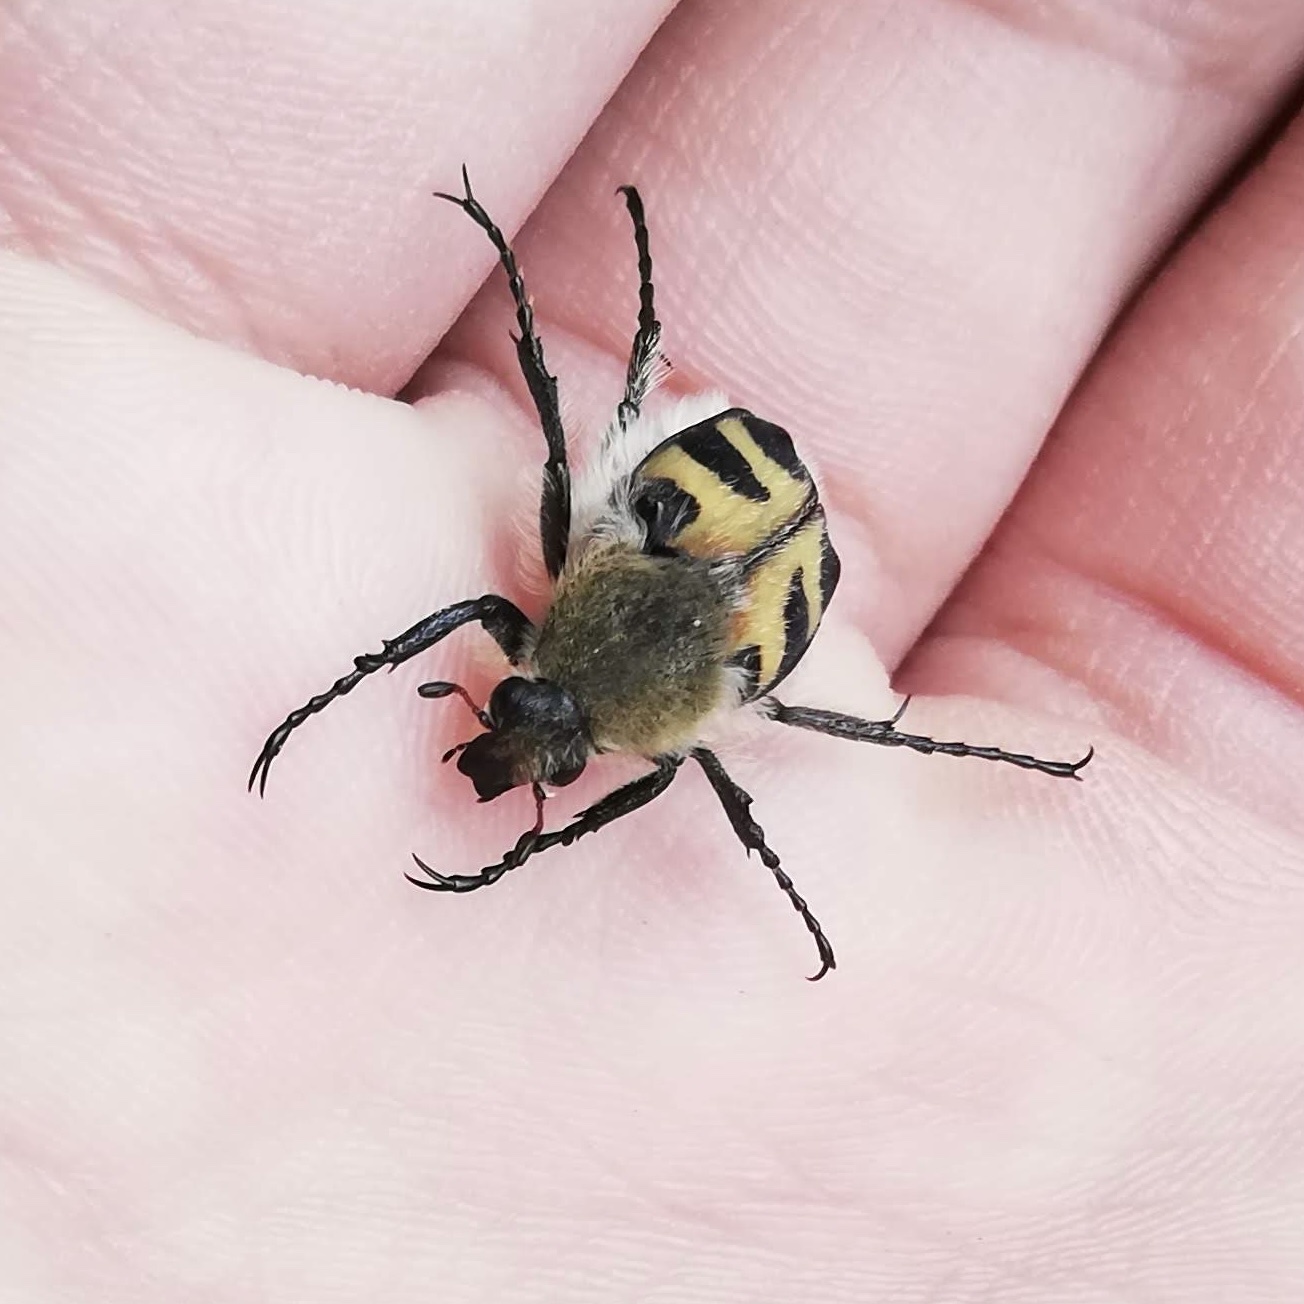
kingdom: Animalia
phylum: Arthropoda
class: Insecta
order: Coleoptera
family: Scarabaeidae
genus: Trichius
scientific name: Trichius fasciatus
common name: Bee beetle
